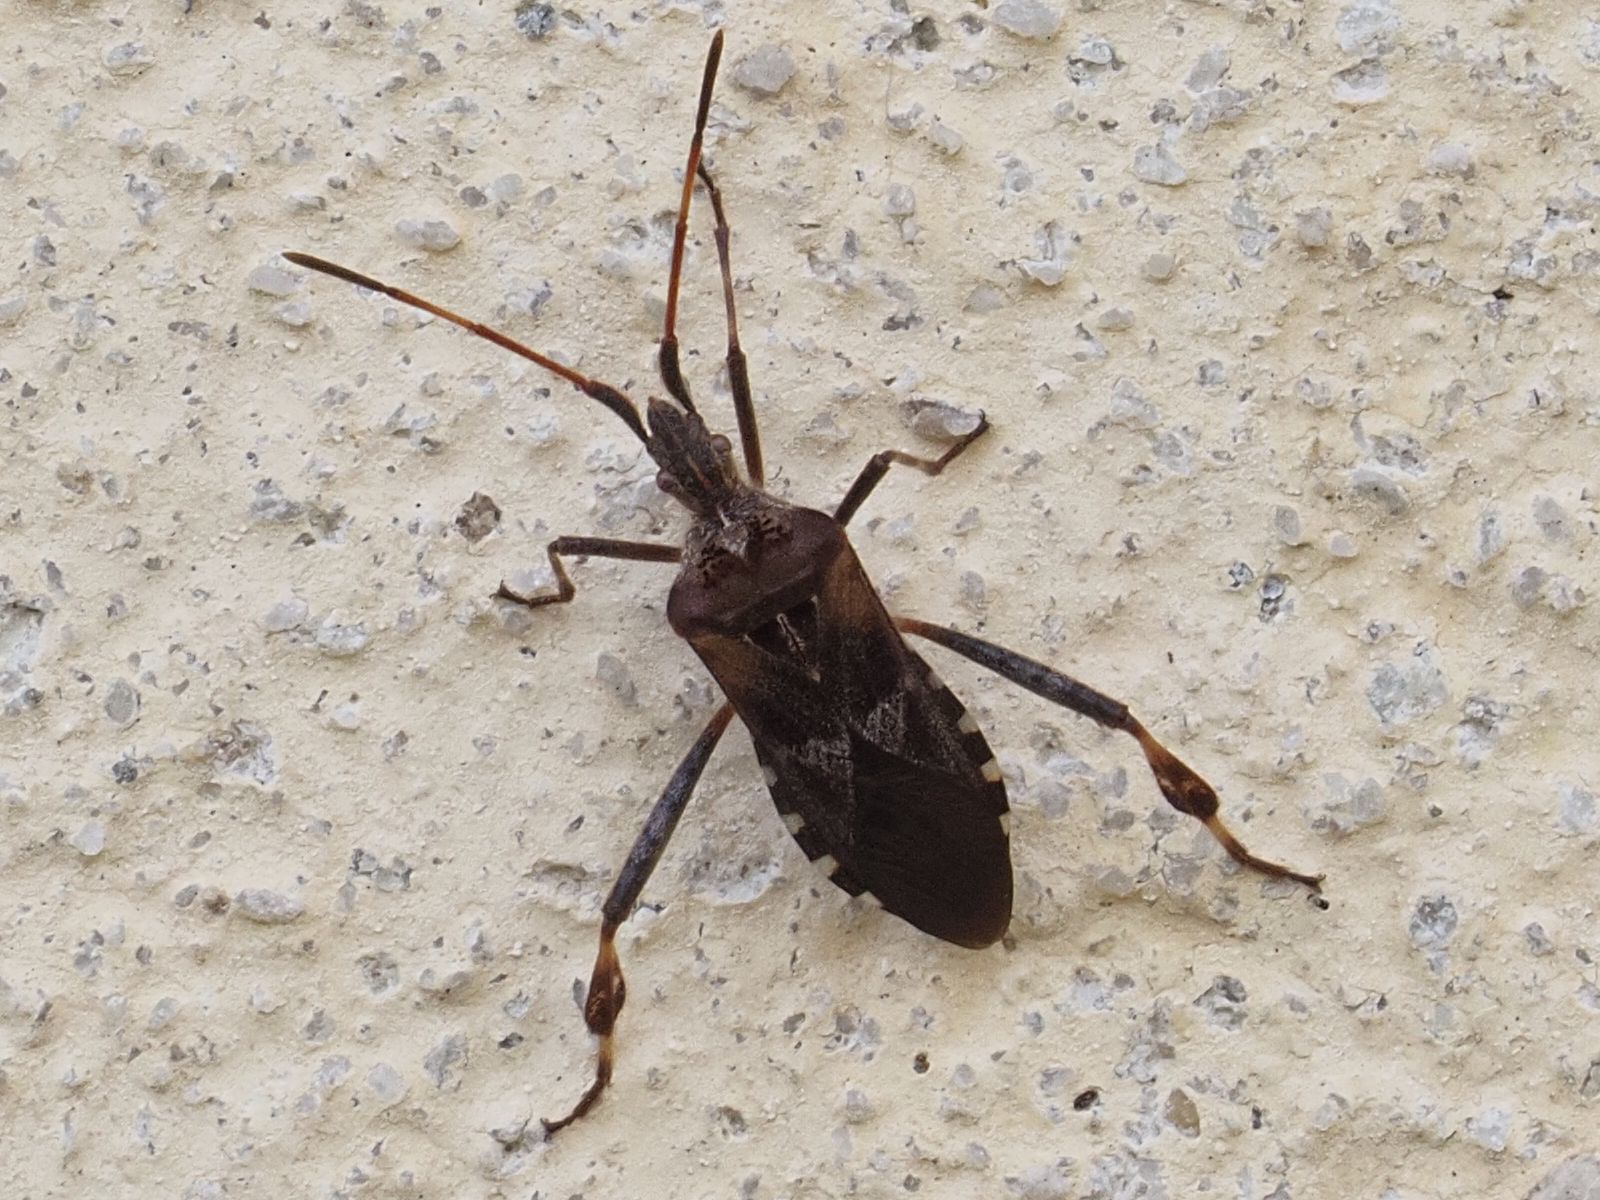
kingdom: Animalia
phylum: Arthropoda
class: Insecta
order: Hemiptera
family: Coreidae
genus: Leptoglossus
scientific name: Leptoglossus occidentalis
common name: Western conifer-seed bug
